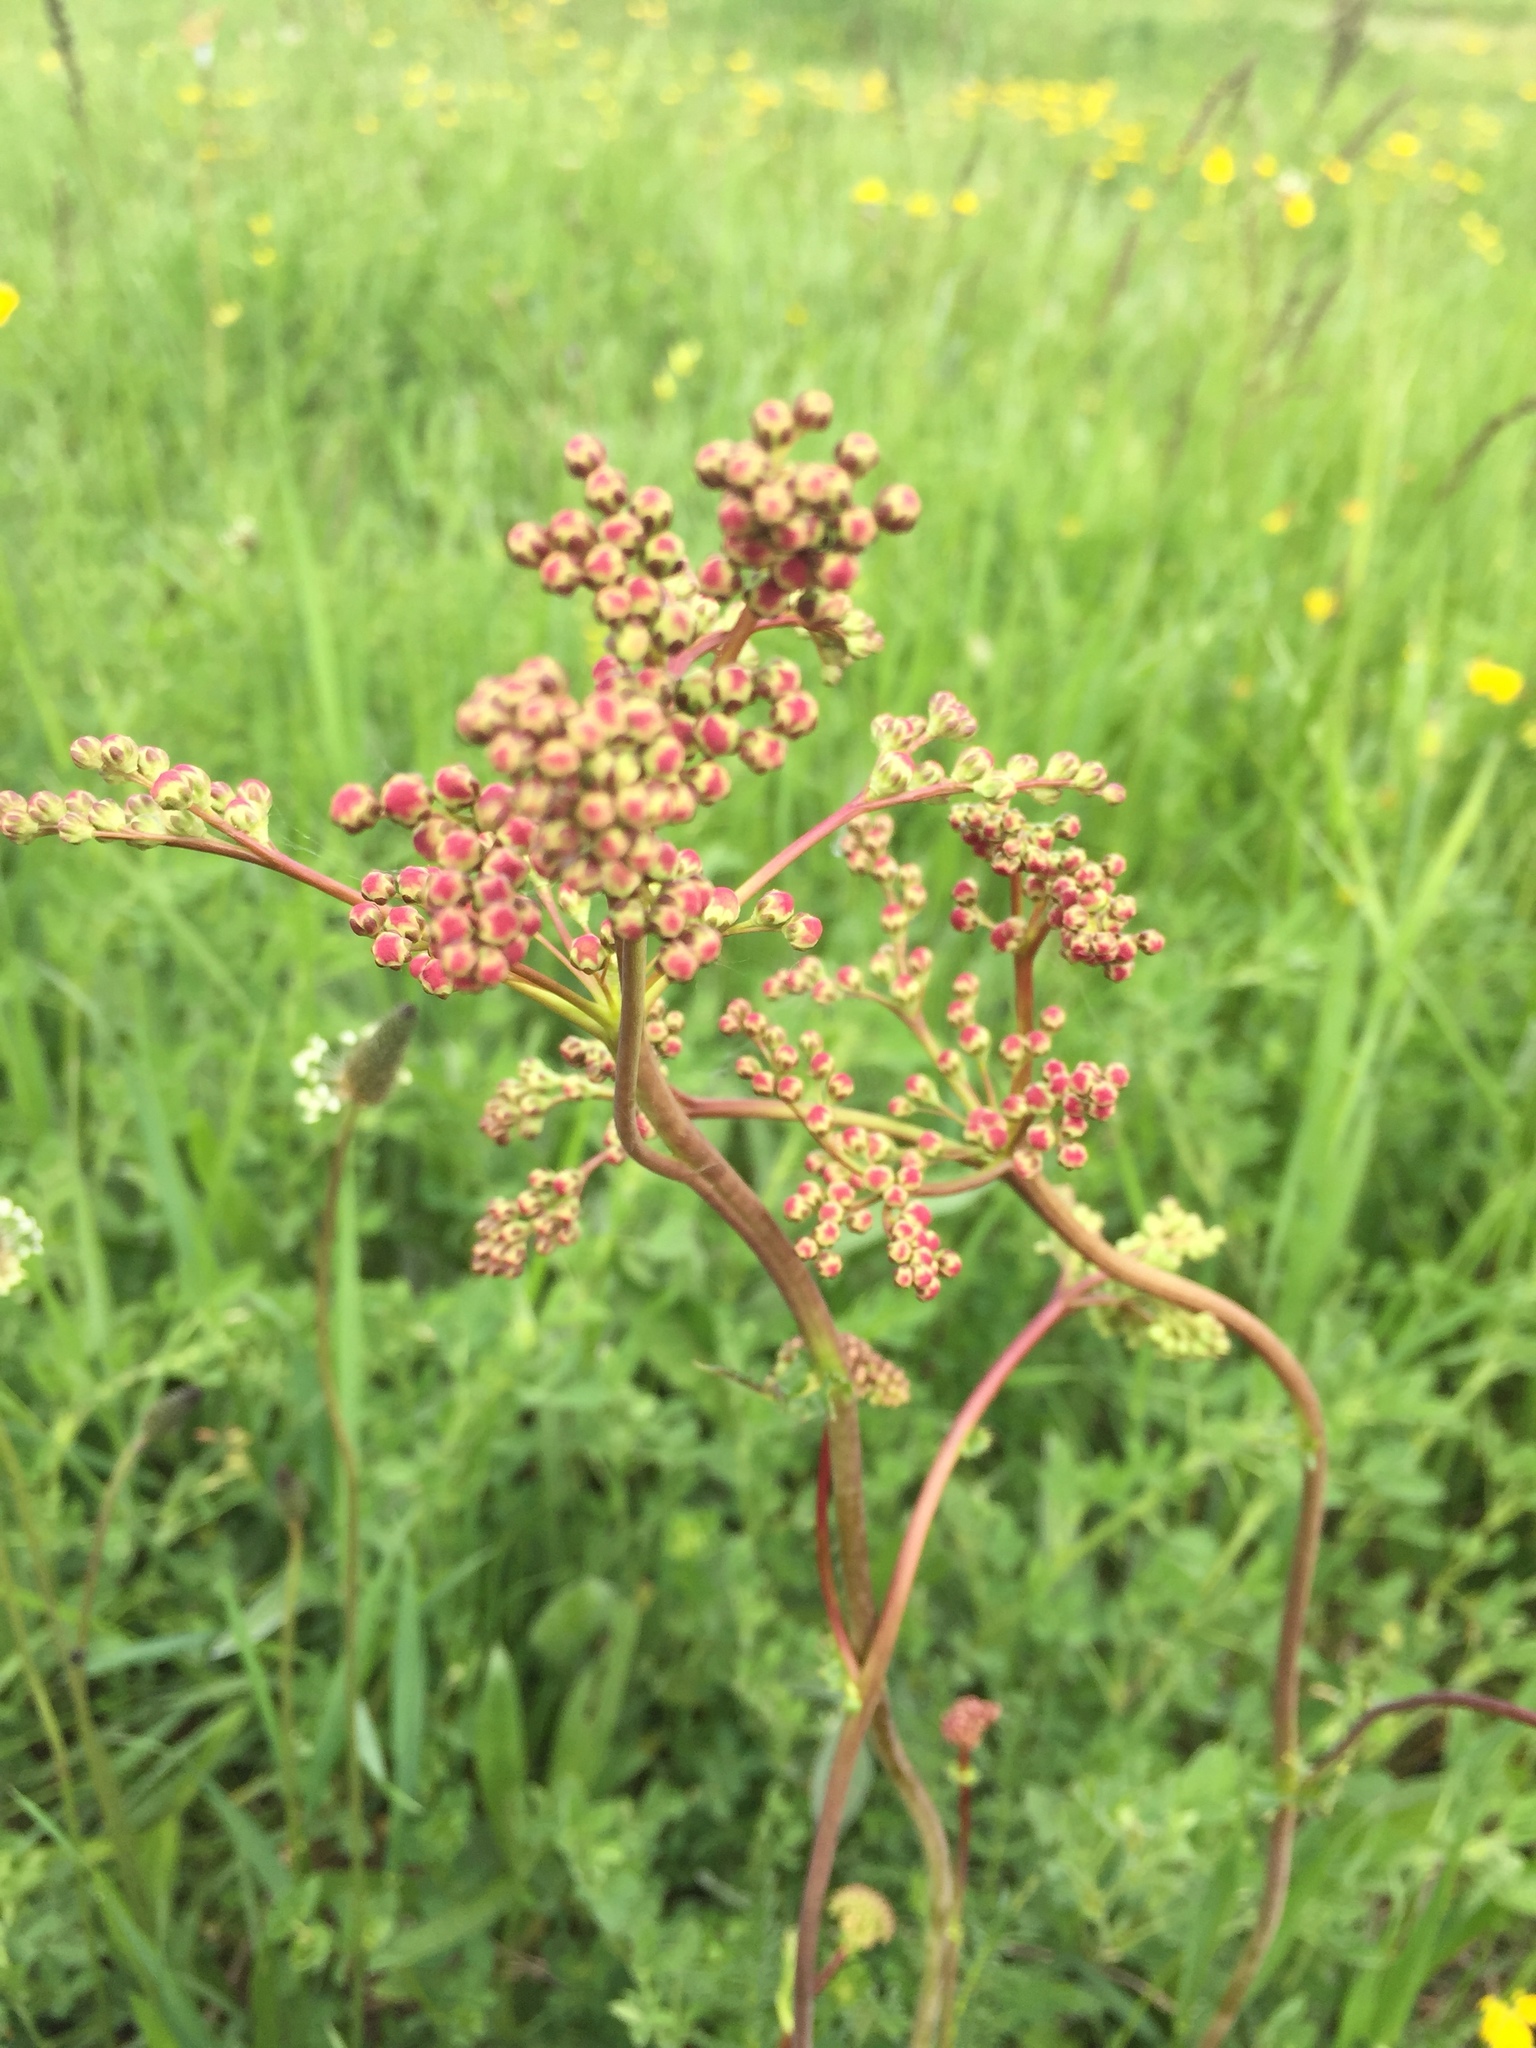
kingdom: Plantae
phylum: Tracheophyta
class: Magnoliopsida
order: Rosales
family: Rosaceae
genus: Filipendula
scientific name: Filipendula vulgaris
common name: Dropwort
